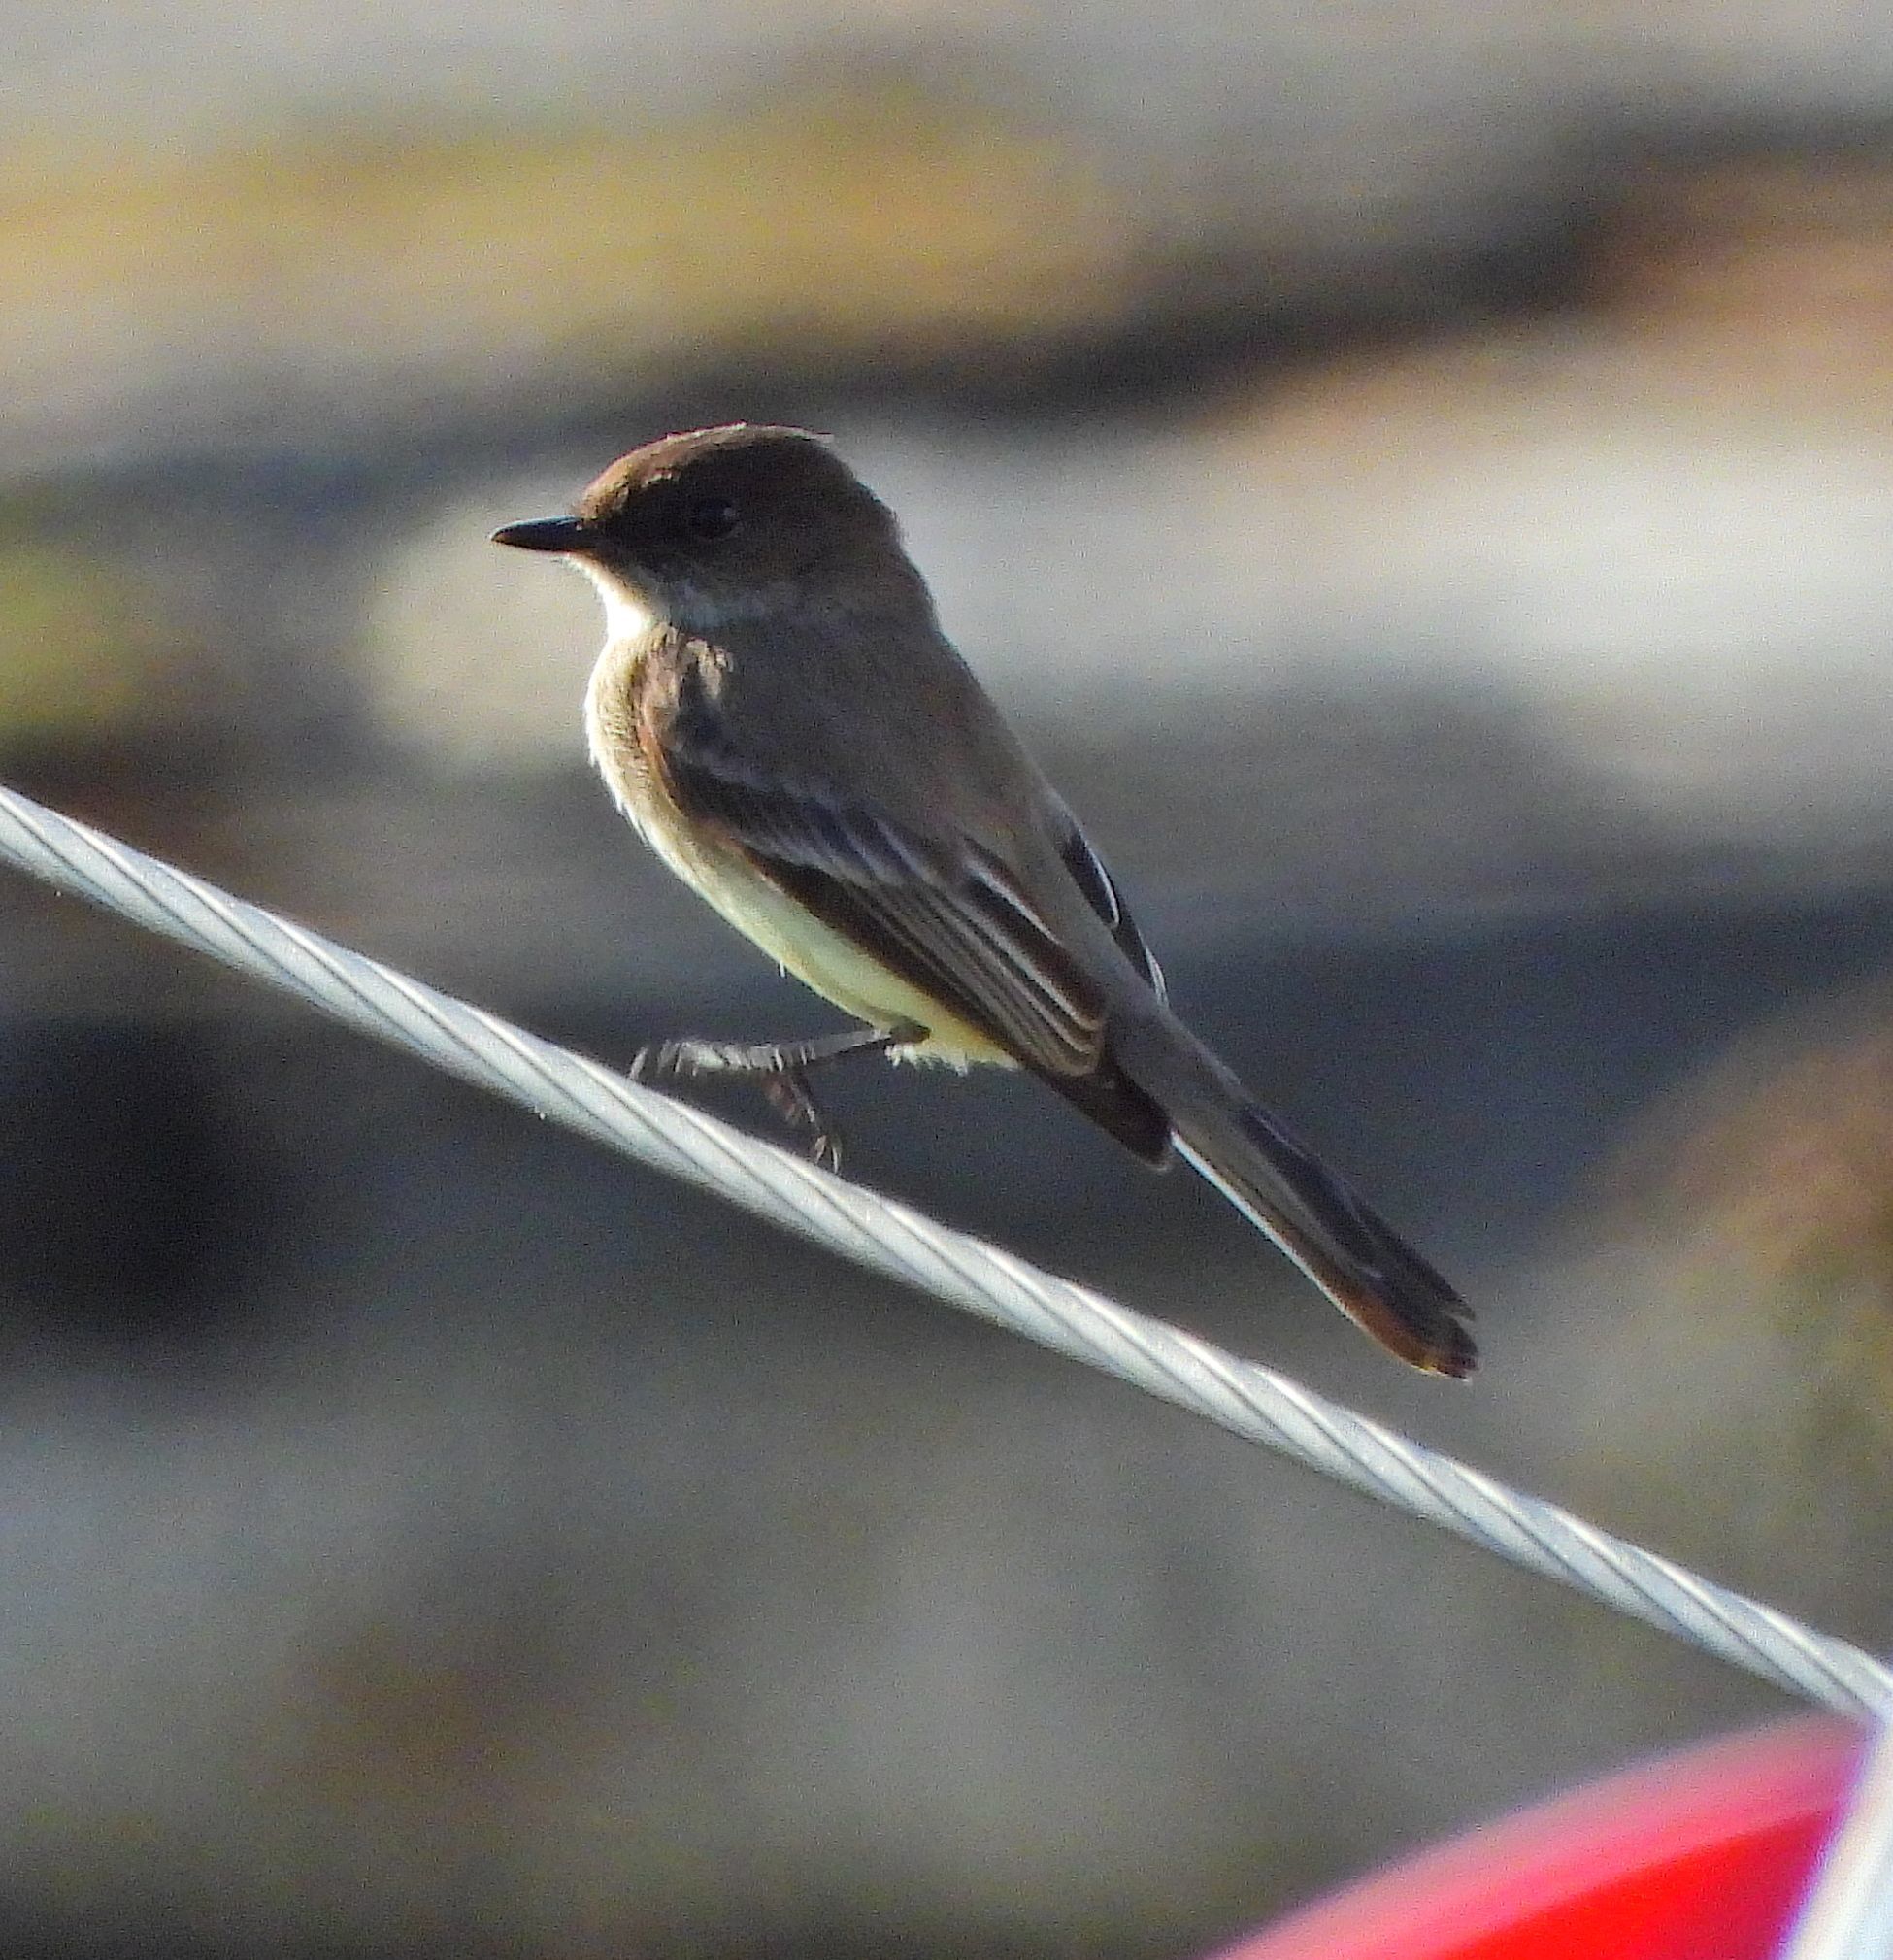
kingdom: Animalia
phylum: Chordata
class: Aves
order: Passeriformes
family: Tyrannidae
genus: Sayornis
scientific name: Sayornis phoebe
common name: Eastern phoebe
